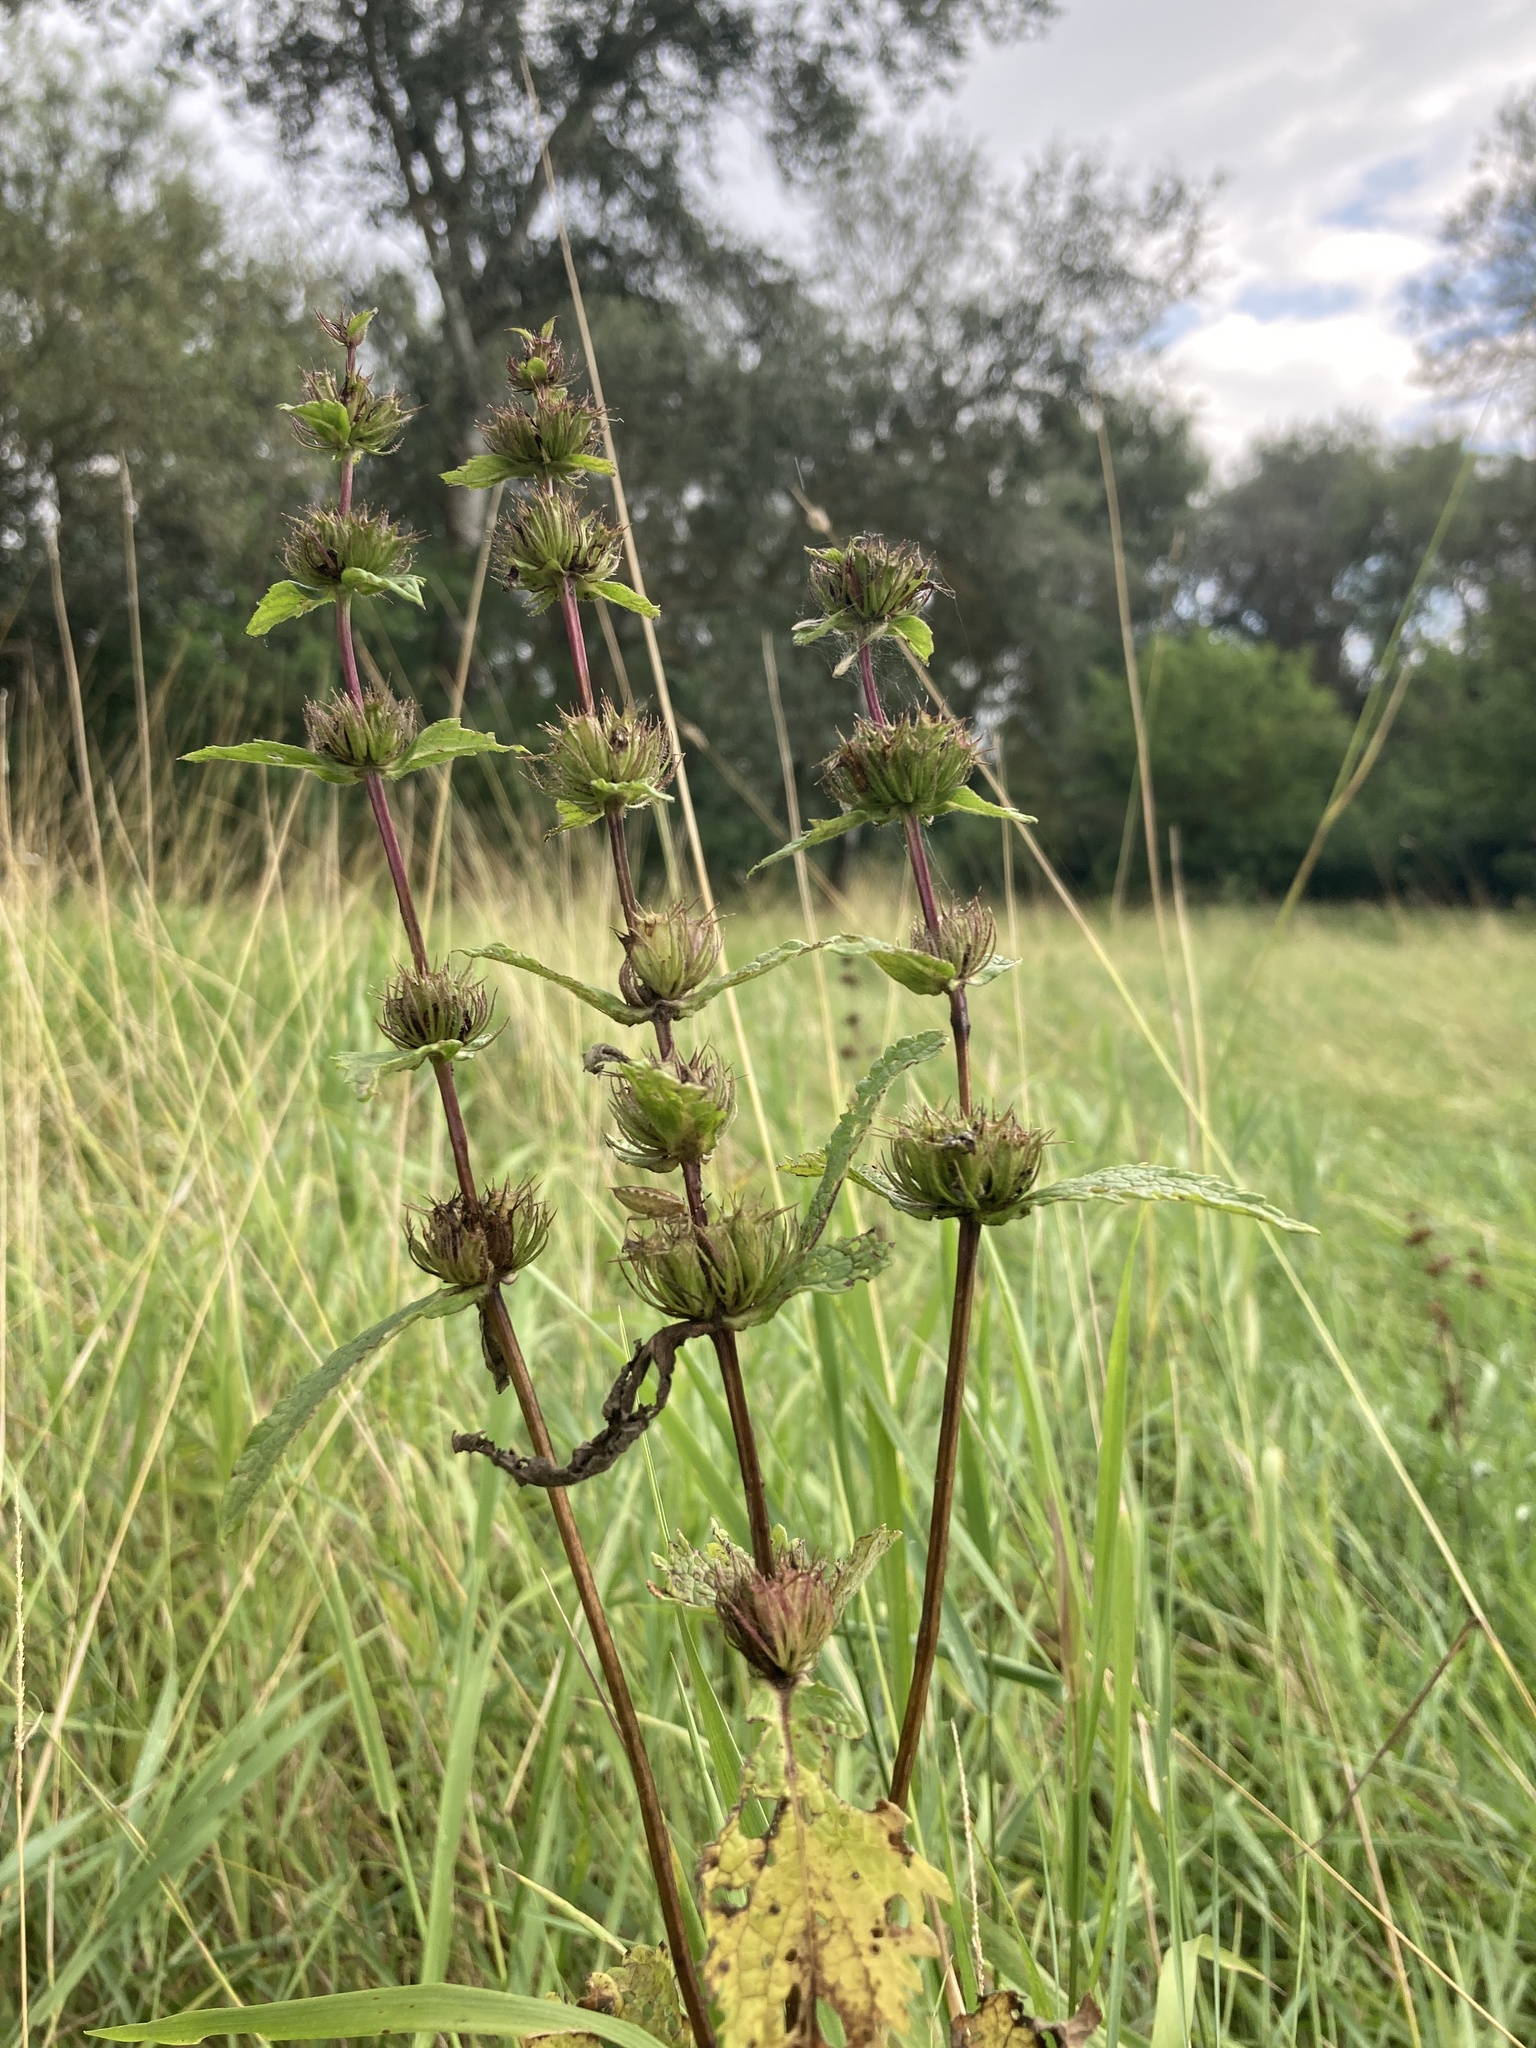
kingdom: Plantae
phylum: Tracheophyta
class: Magnoliopsida
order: Lamiales
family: Lamiaceae
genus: Phlomoides
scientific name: Phlomoides tuberosa
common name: Tuberous jerusalem sage
